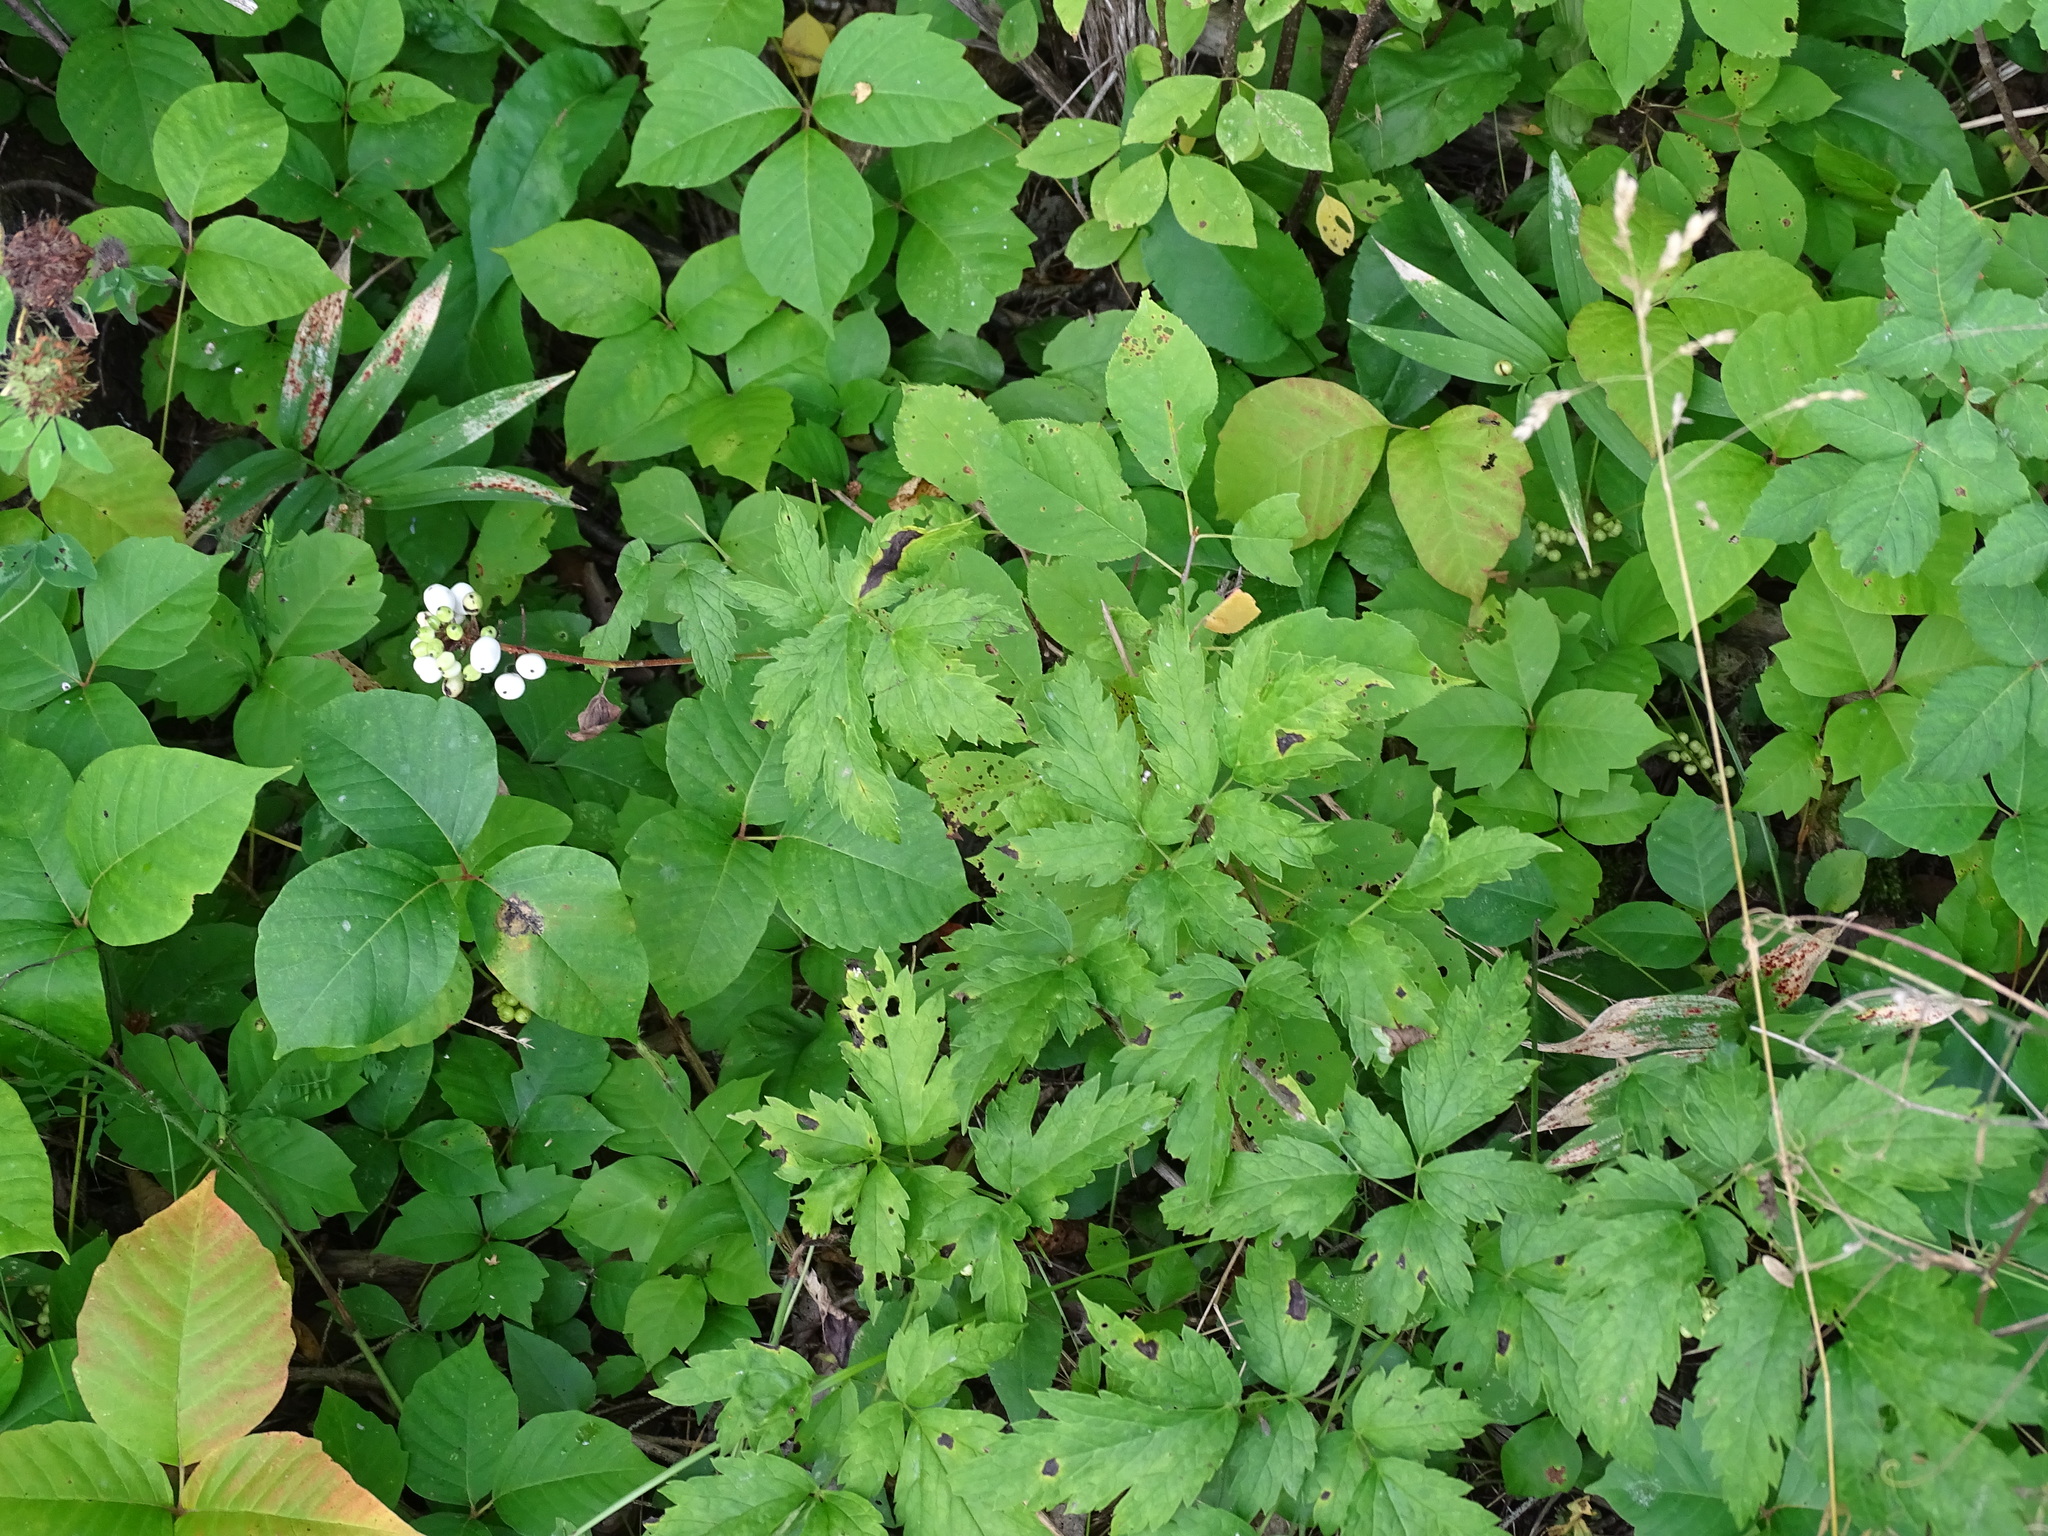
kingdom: Plantae
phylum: Tracheophyta
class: Magnoliopsida
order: Ranunculales
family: Ranunculaceae
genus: Actaea
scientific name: Actaea rubra
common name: Red baneberry
